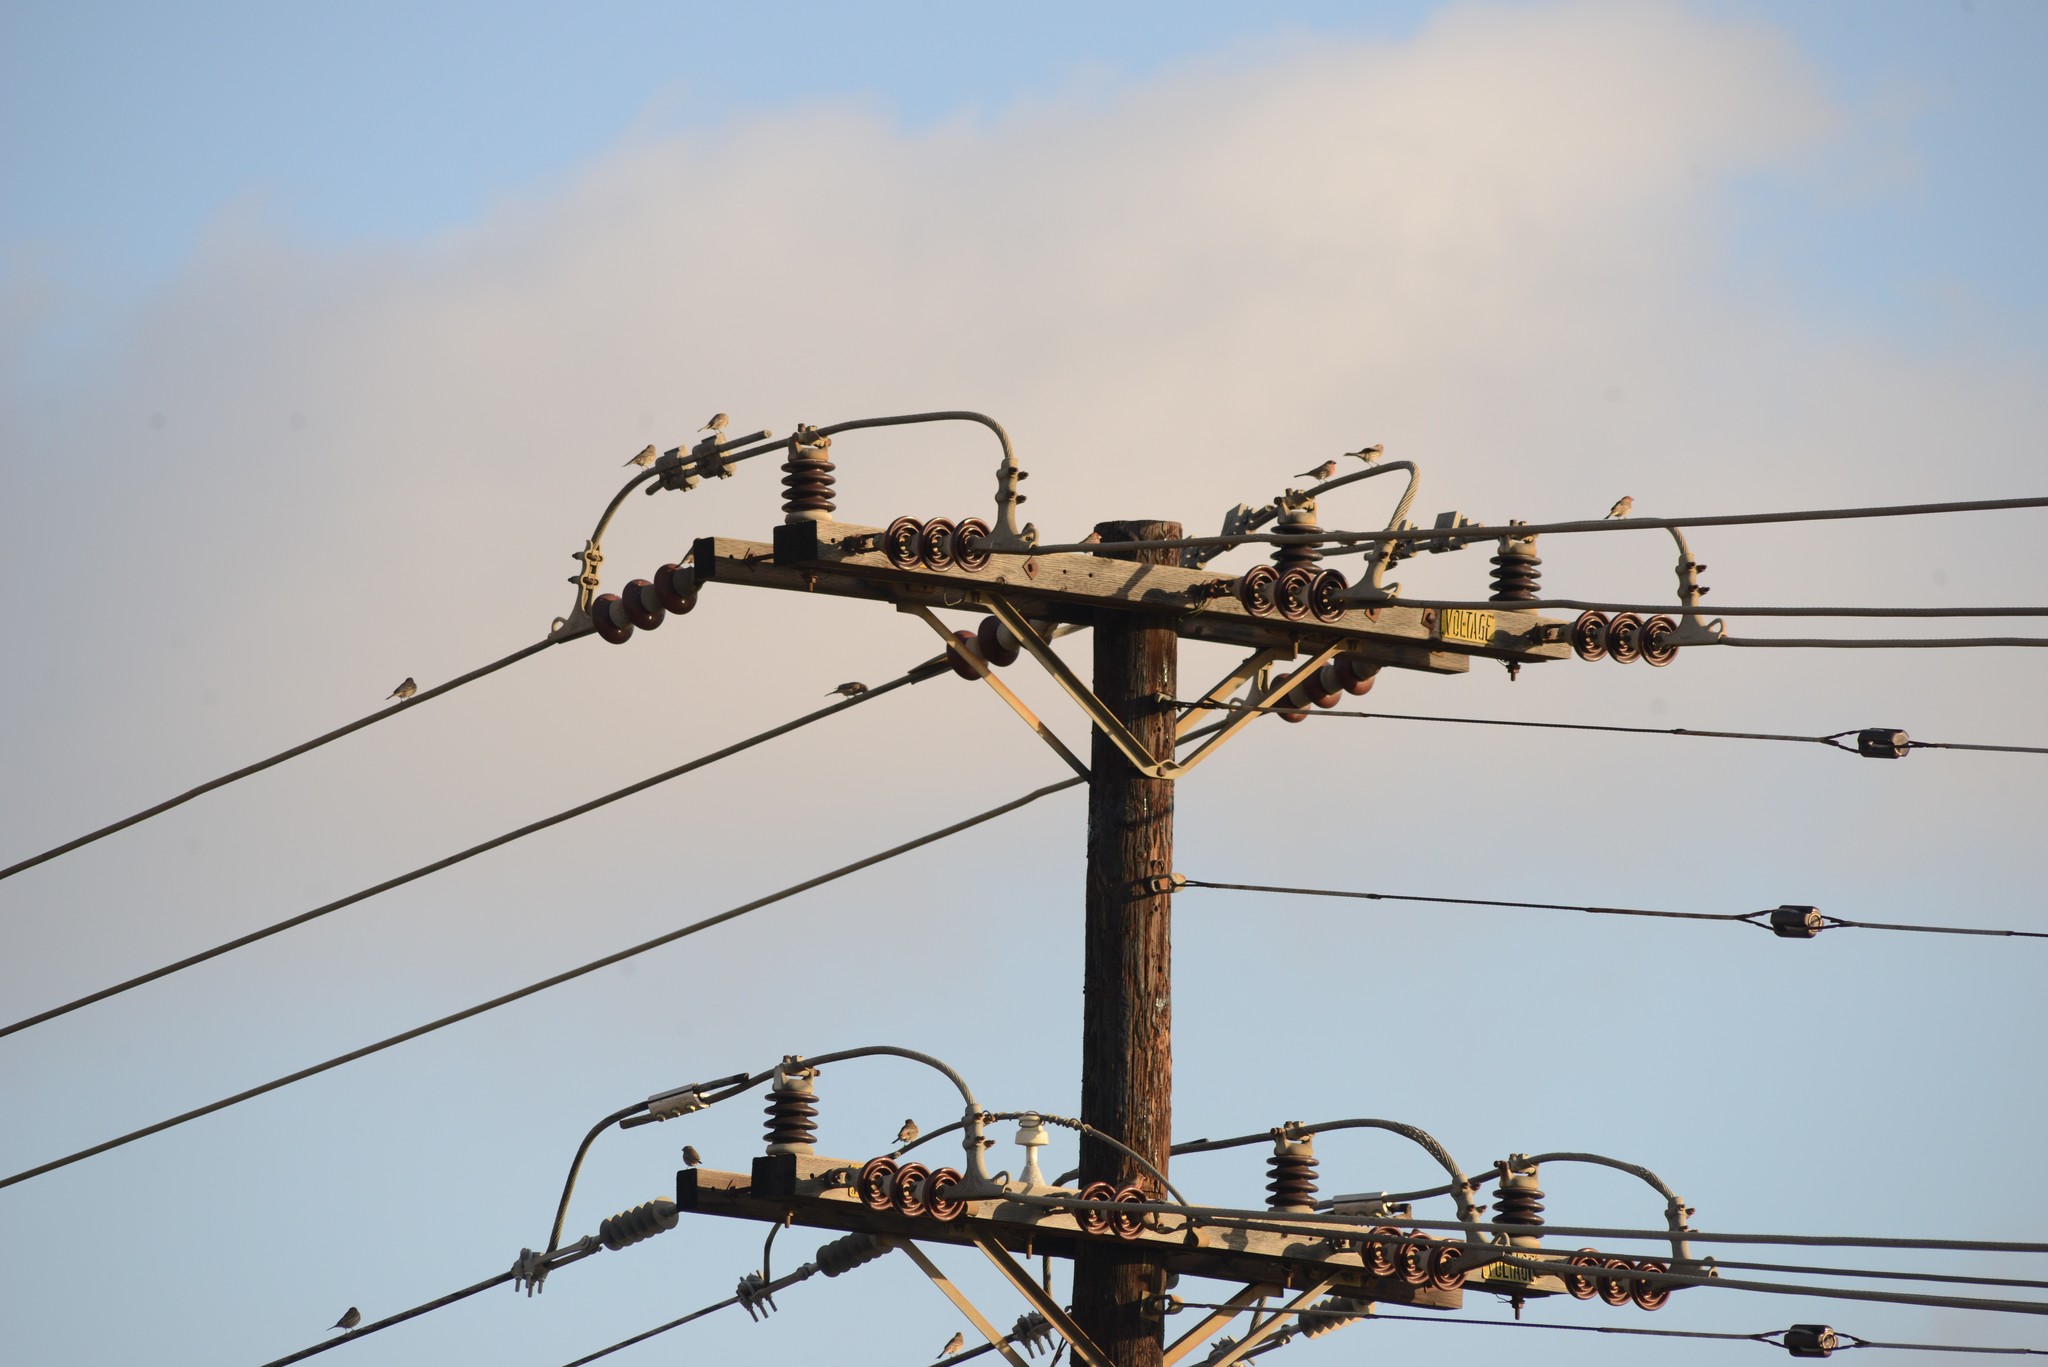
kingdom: Animalia
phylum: Chordata
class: Aves
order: Passeriformes
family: Fringillidae
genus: Haemorhous
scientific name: Haemorhous mexicanus
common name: House finch
